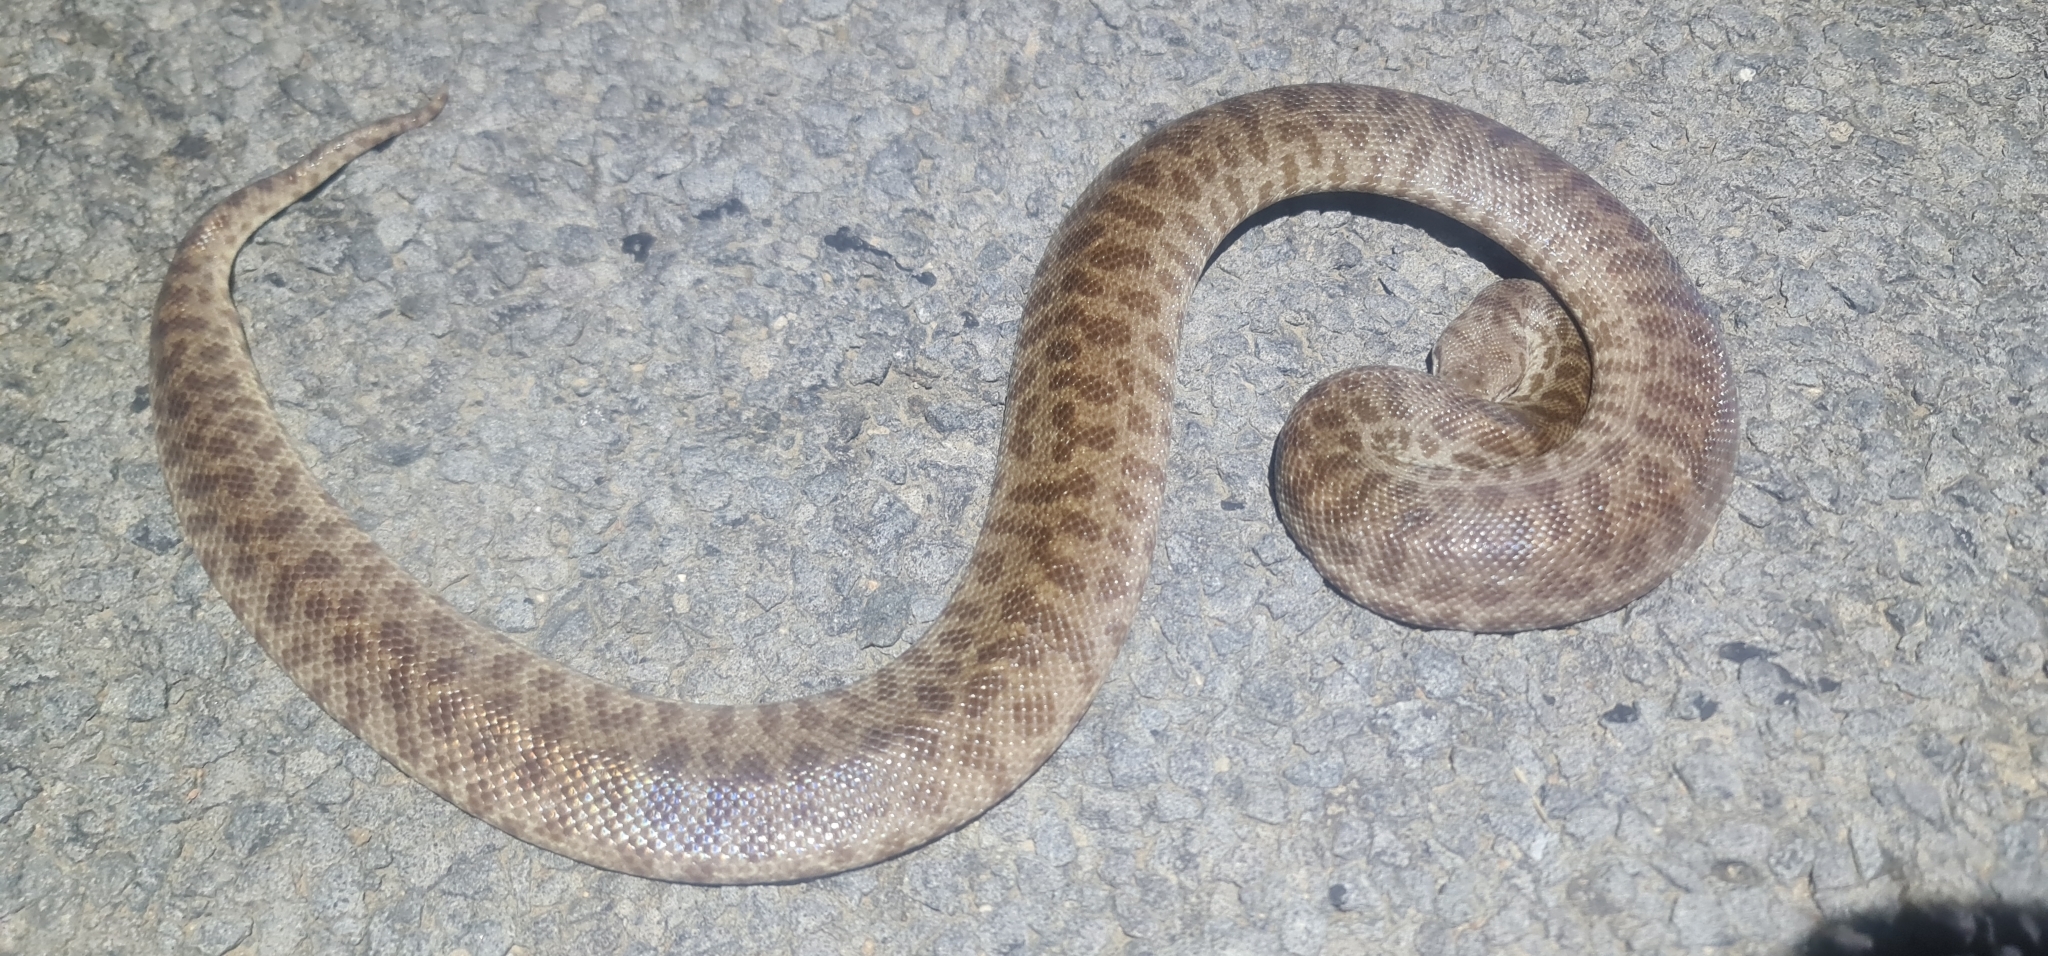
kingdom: Animalia
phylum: Chordata
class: Squamata
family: Pythonidae
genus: Antaresia
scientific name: Antaresia childreni
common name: Children's python
